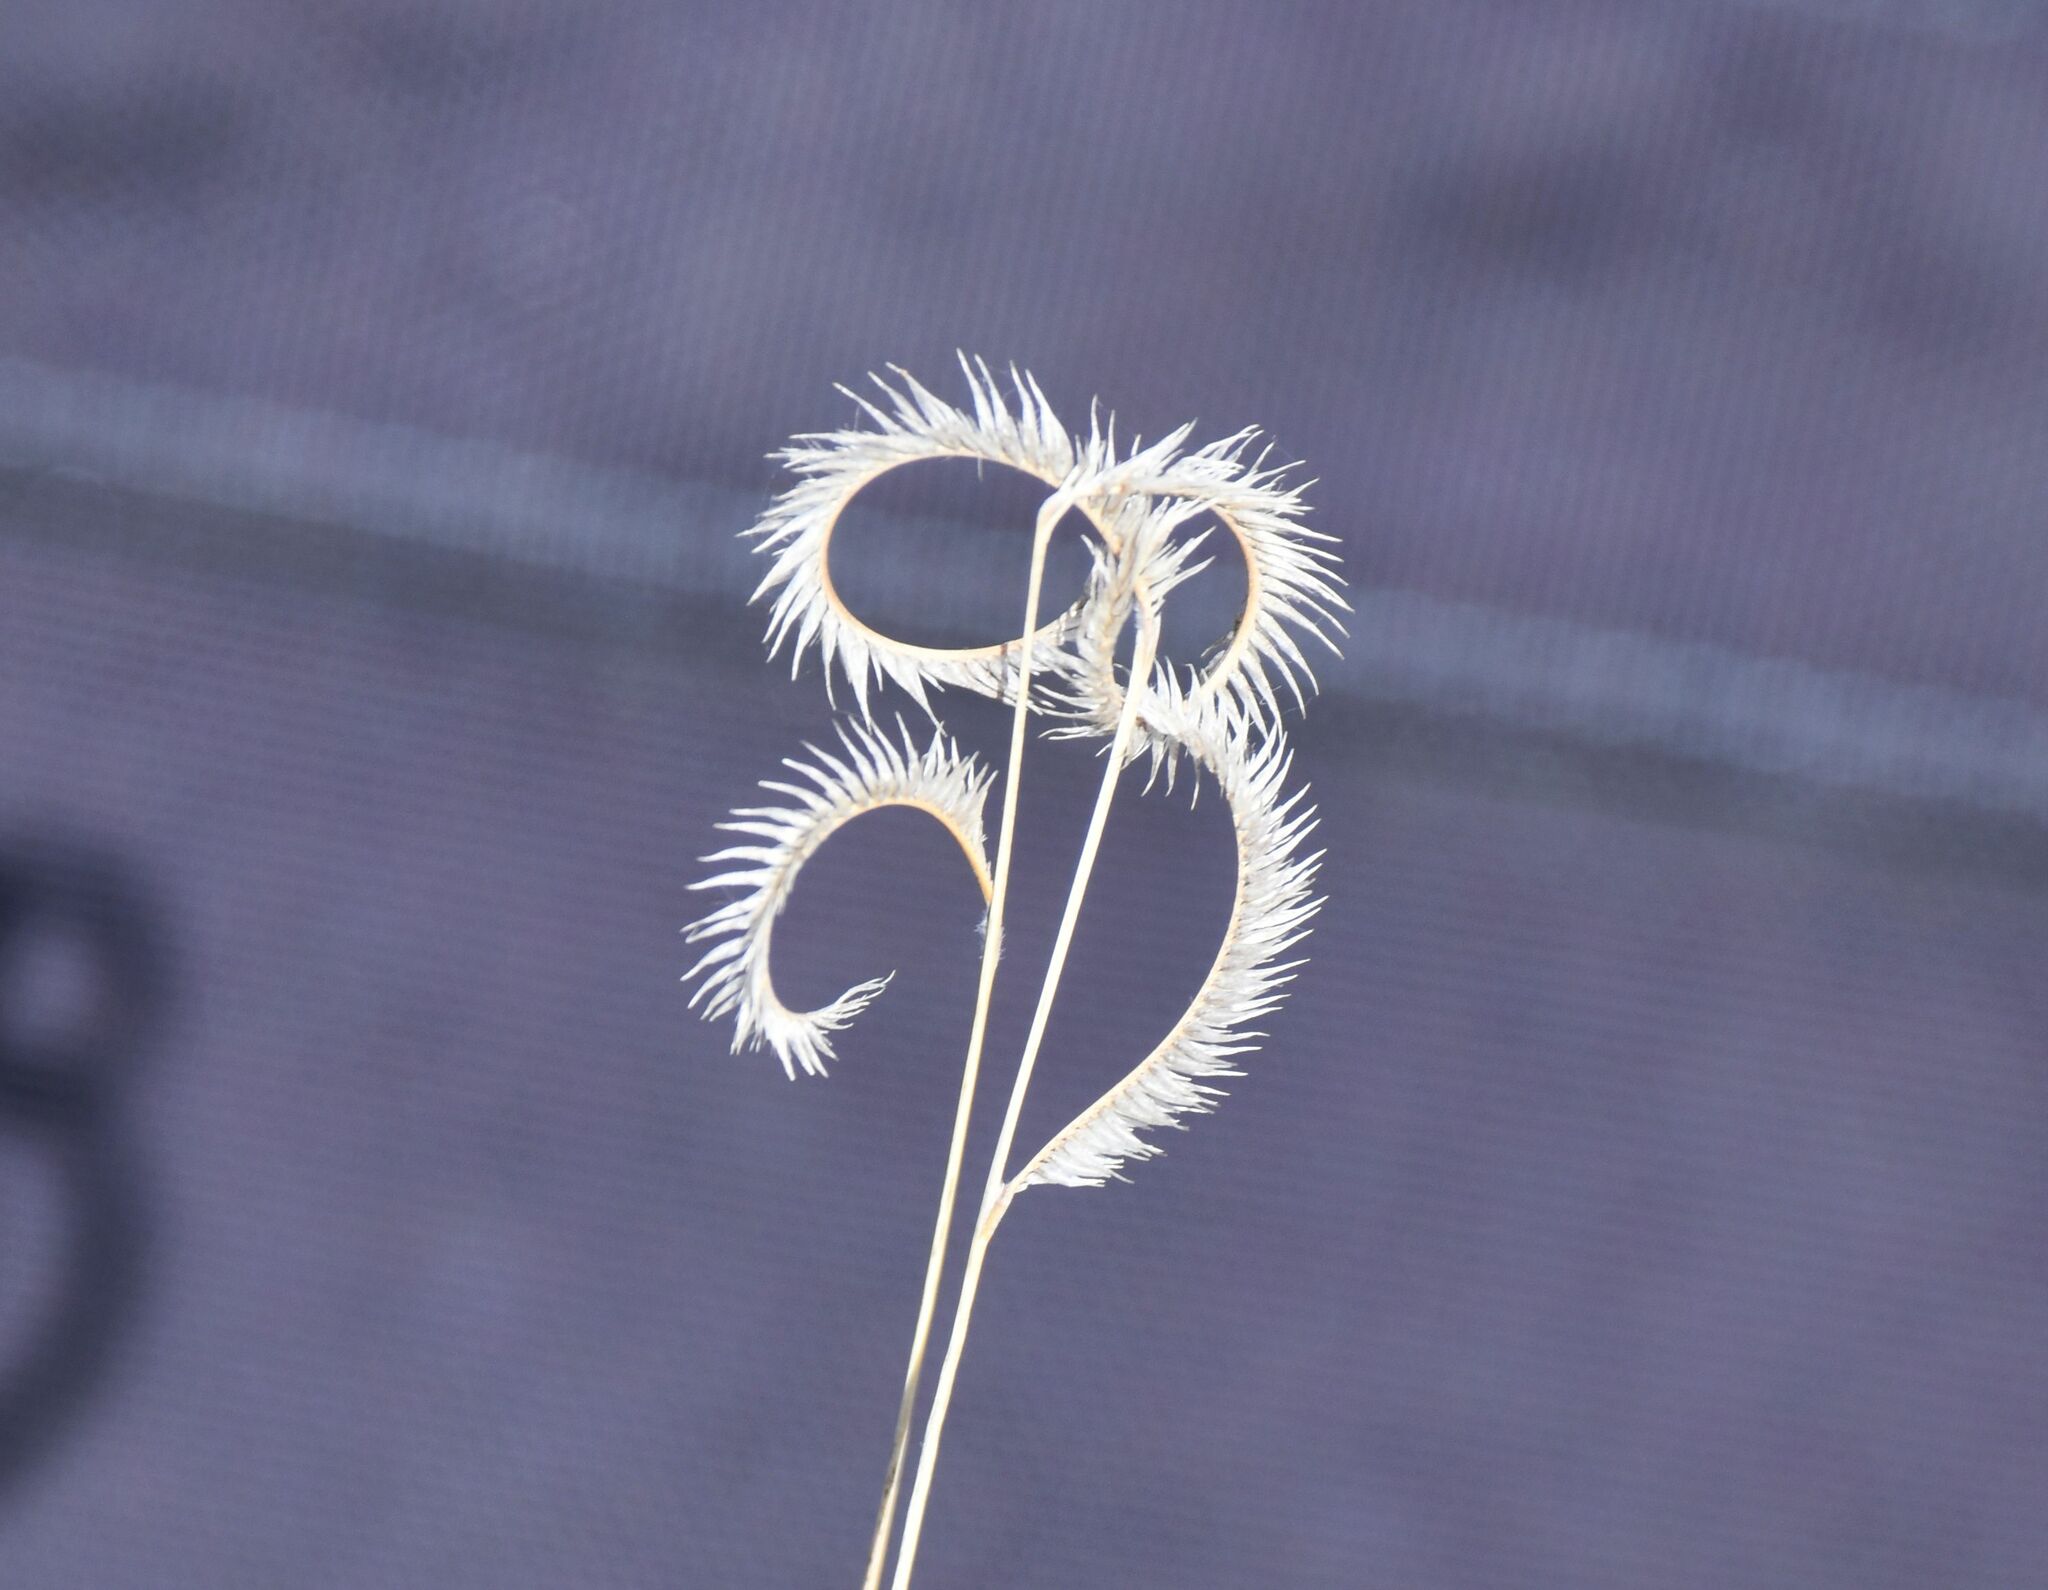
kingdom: Plantae
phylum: Tracheophyta
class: Liliopsida
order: Poales
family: Poaceae
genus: Bouteloua
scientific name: Bouteloua gracilis
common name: Blue grama
